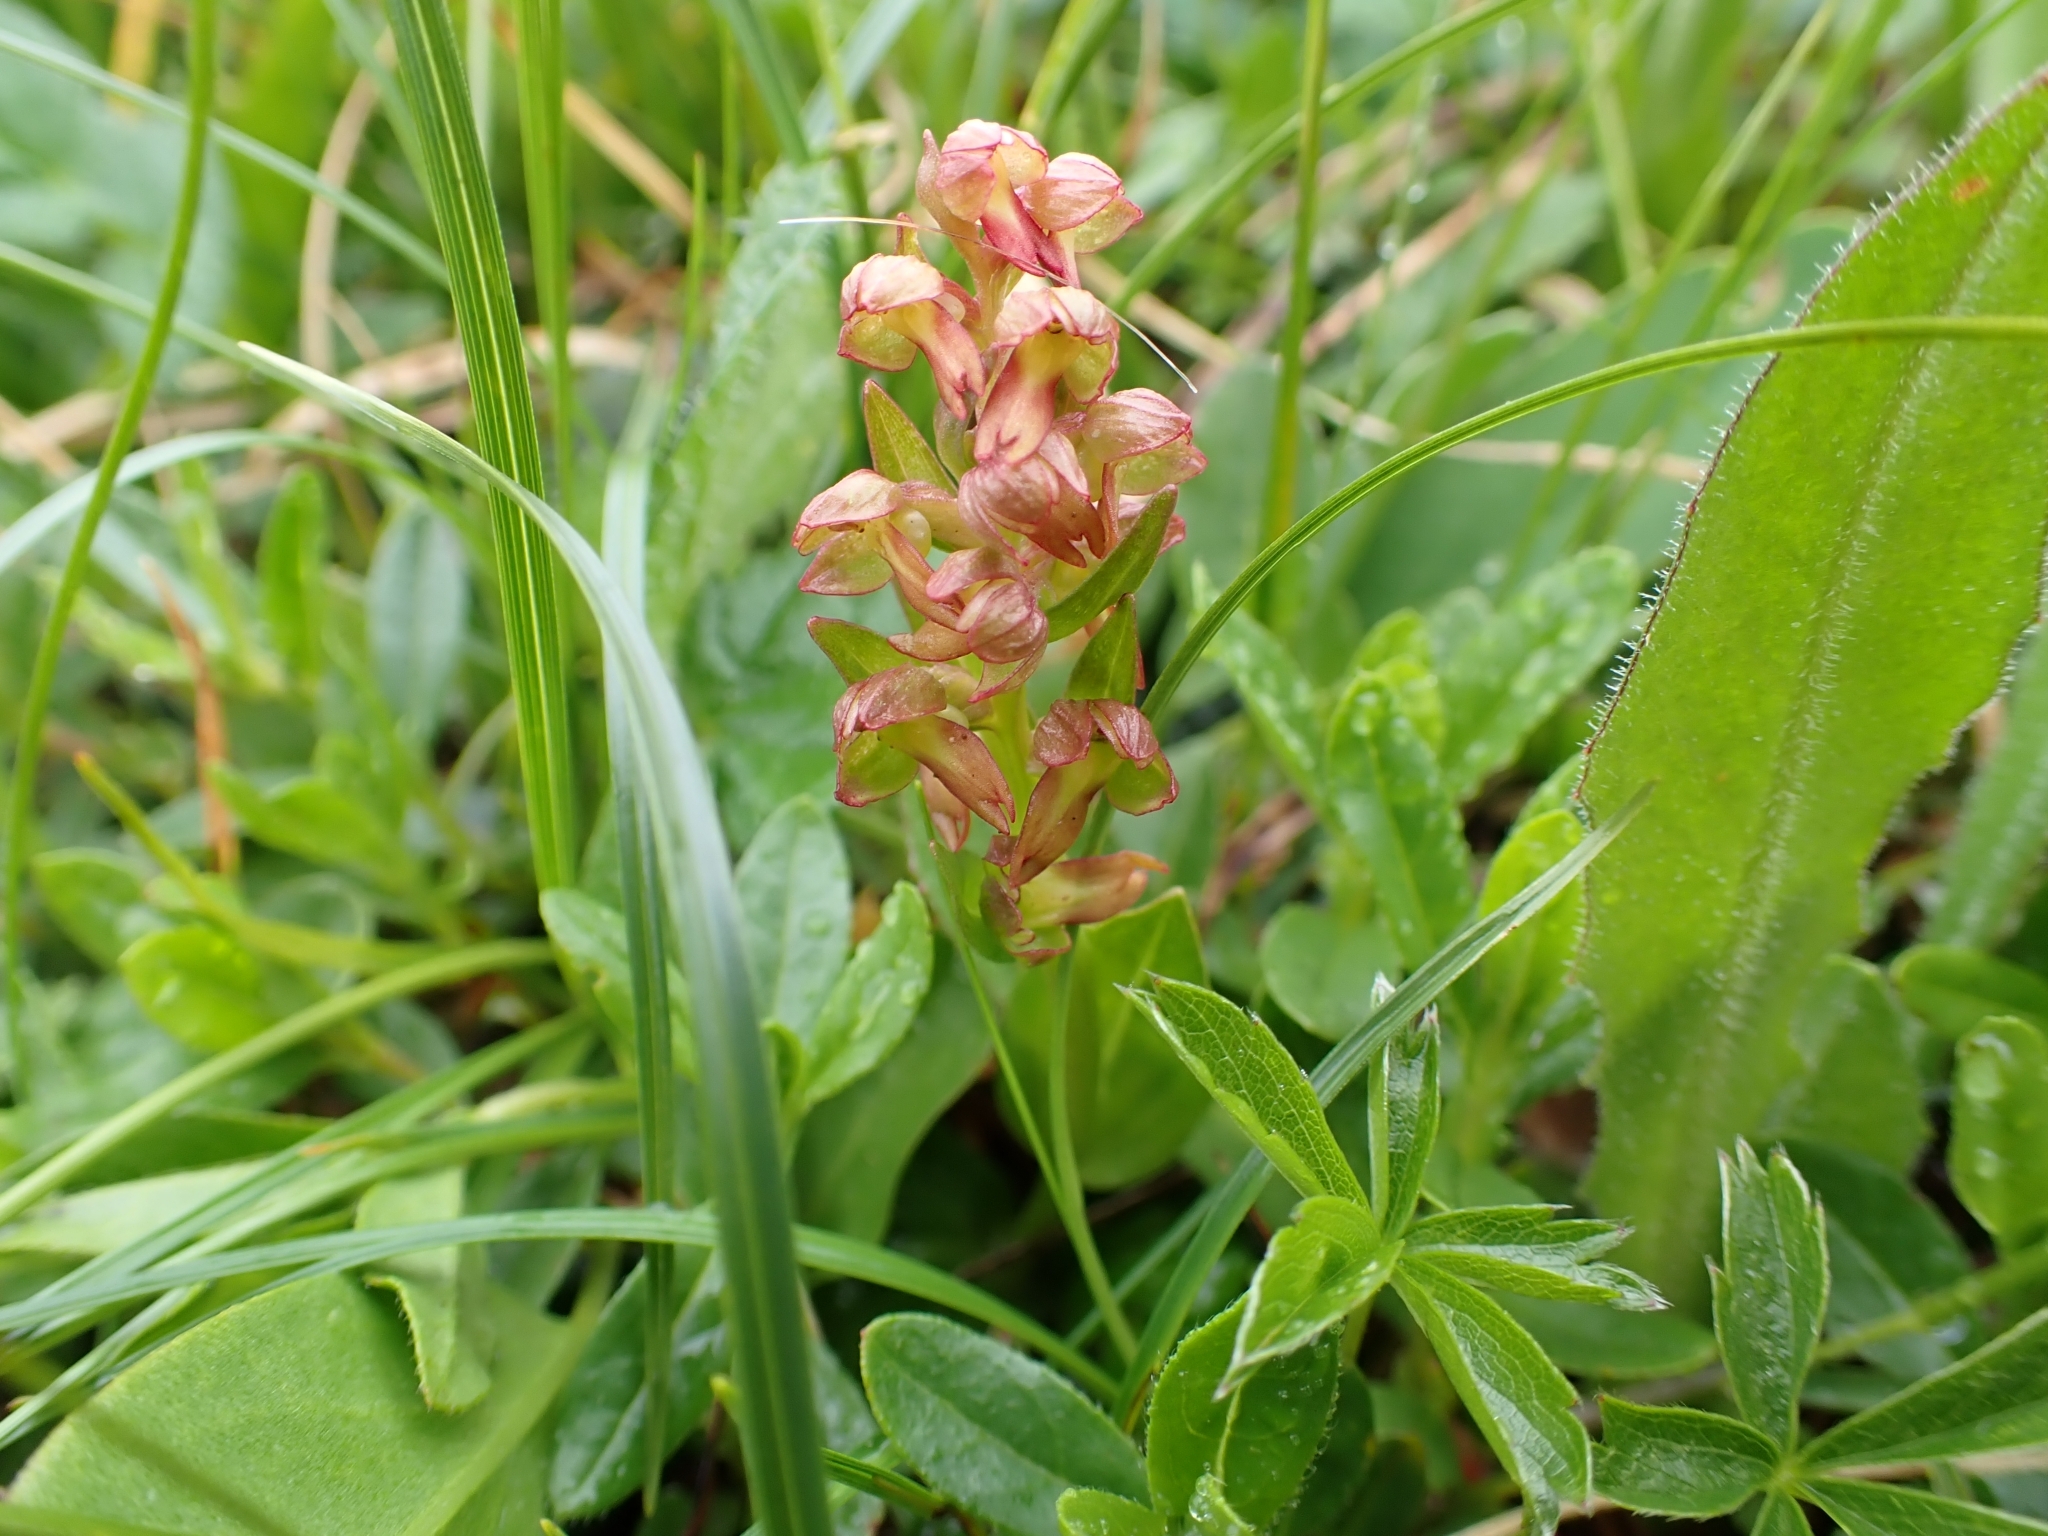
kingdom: Plantae
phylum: Tracheophyta
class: Liliopsida
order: Asparagales
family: Orchidaceae
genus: Dactylorhiza
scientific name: Dactylorhiza viridis
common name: Longbract frog orchid
